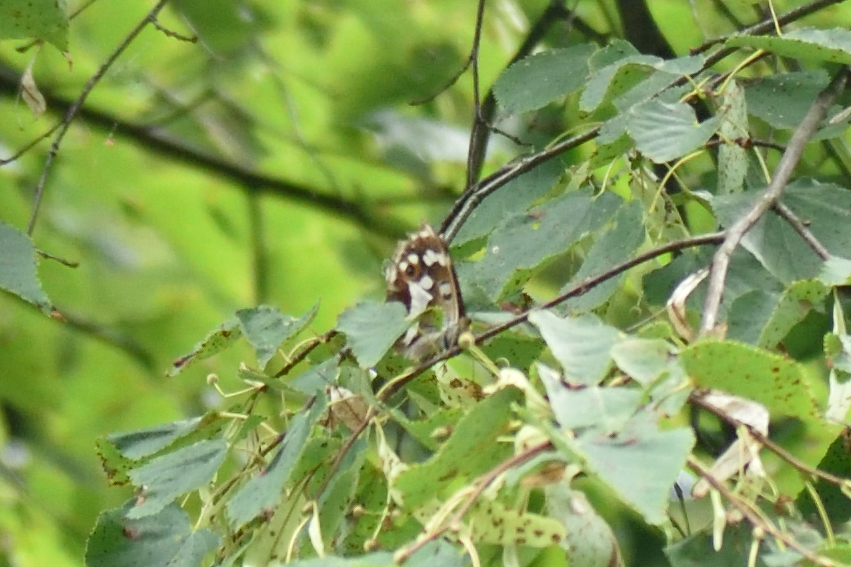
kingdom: Animalia
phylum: Arthropoda
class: Insecta
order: Lepidoptera
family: Nymphalidae
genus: Apatura
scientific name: Apatura iris
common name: Purple emperor
